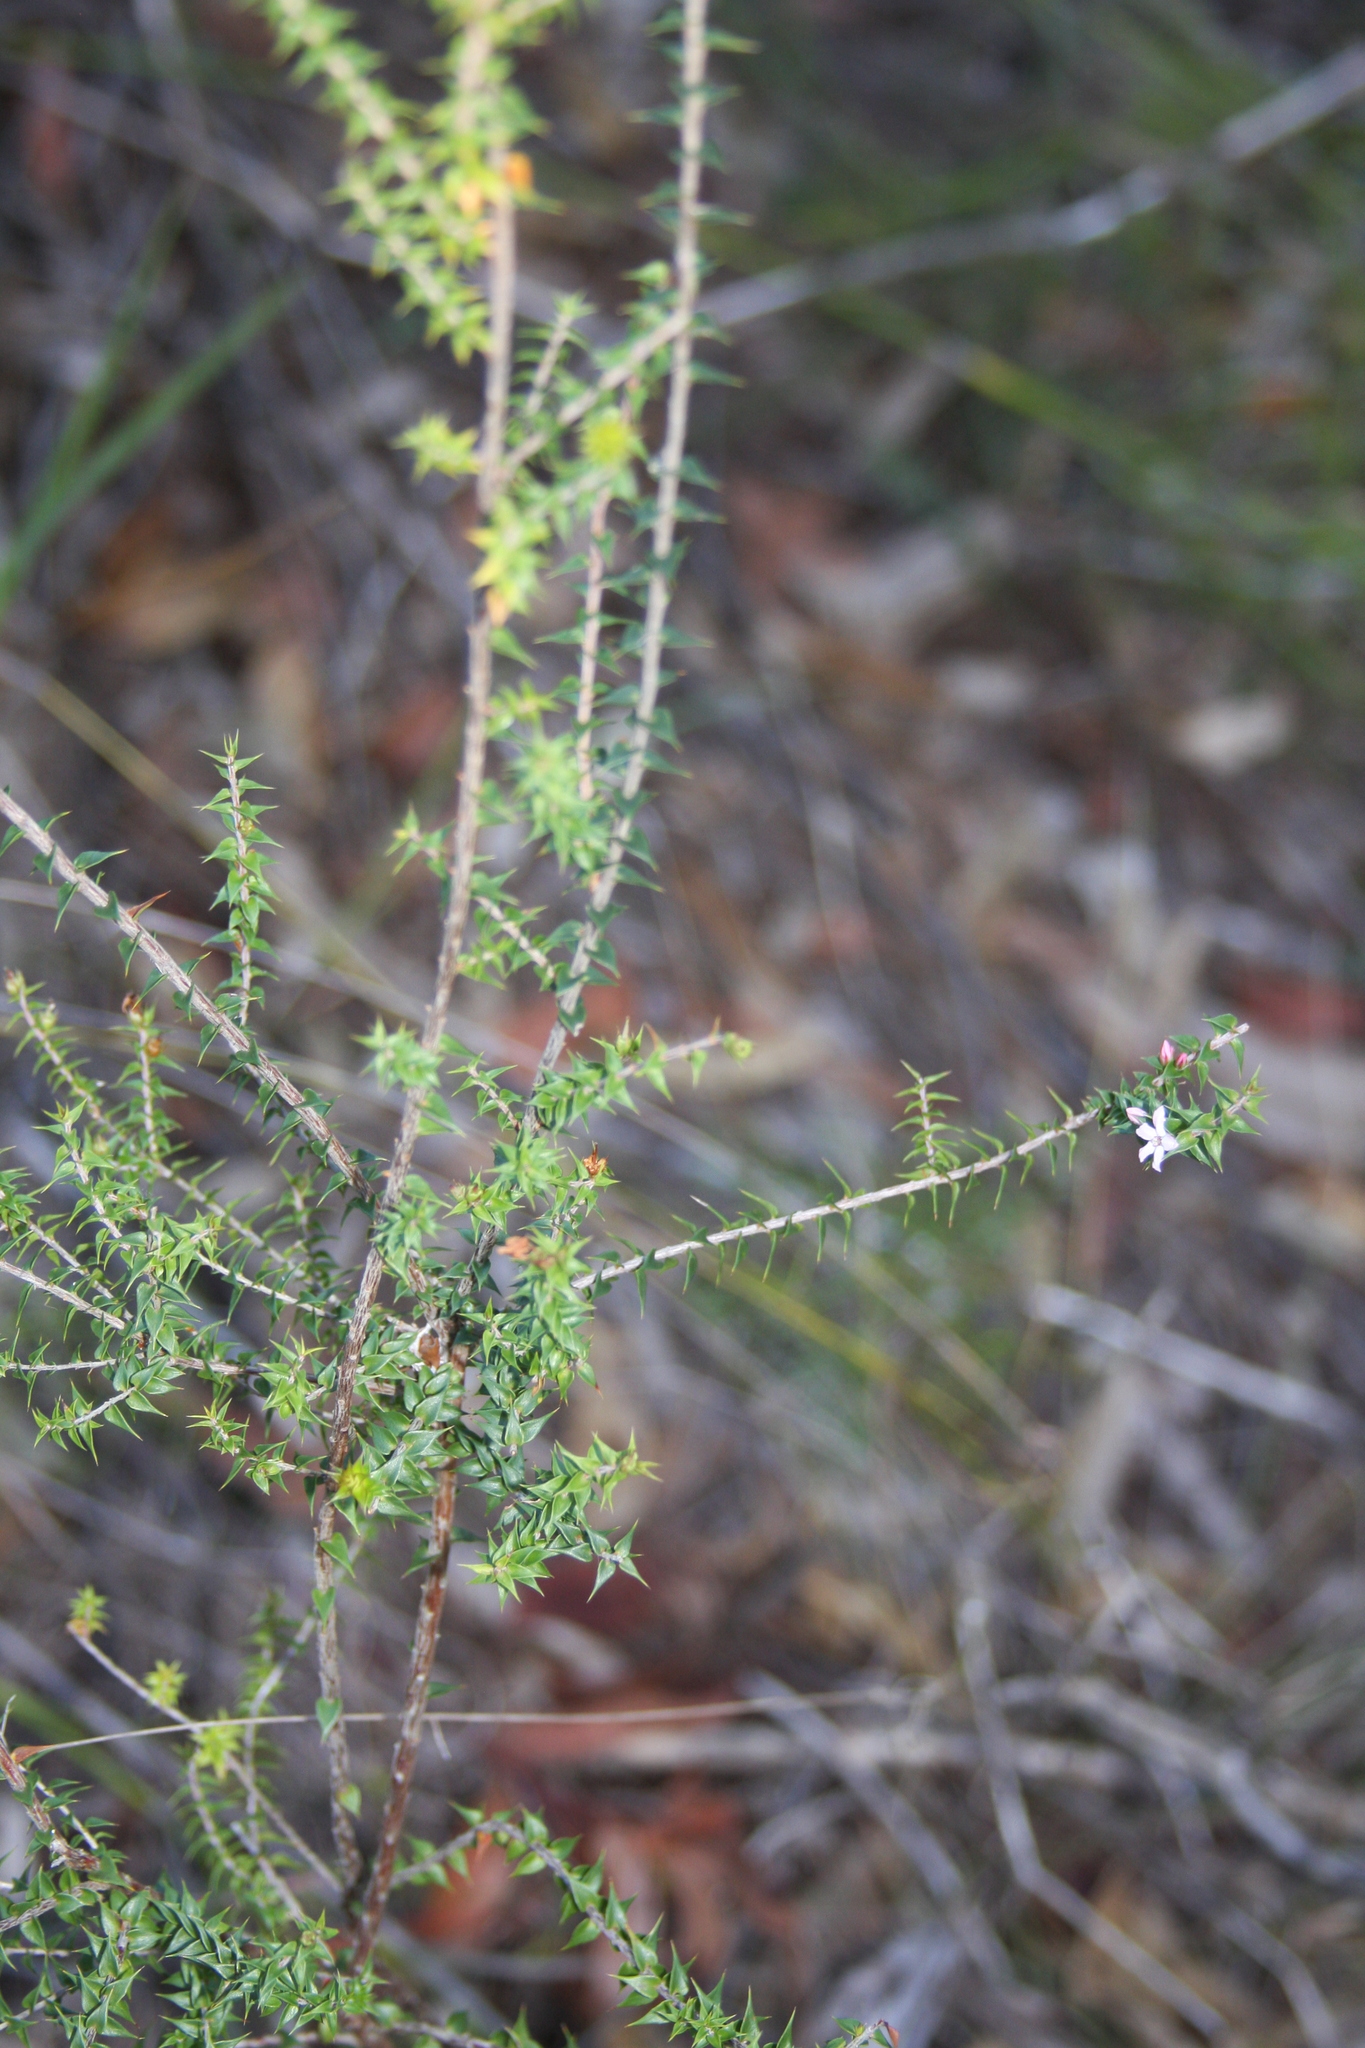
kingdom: Plantae
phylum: Tracheophyta
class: Magnoliopsida
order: Ericales
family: Ericaceae
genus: Epacris
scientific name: Epacris pulchella
